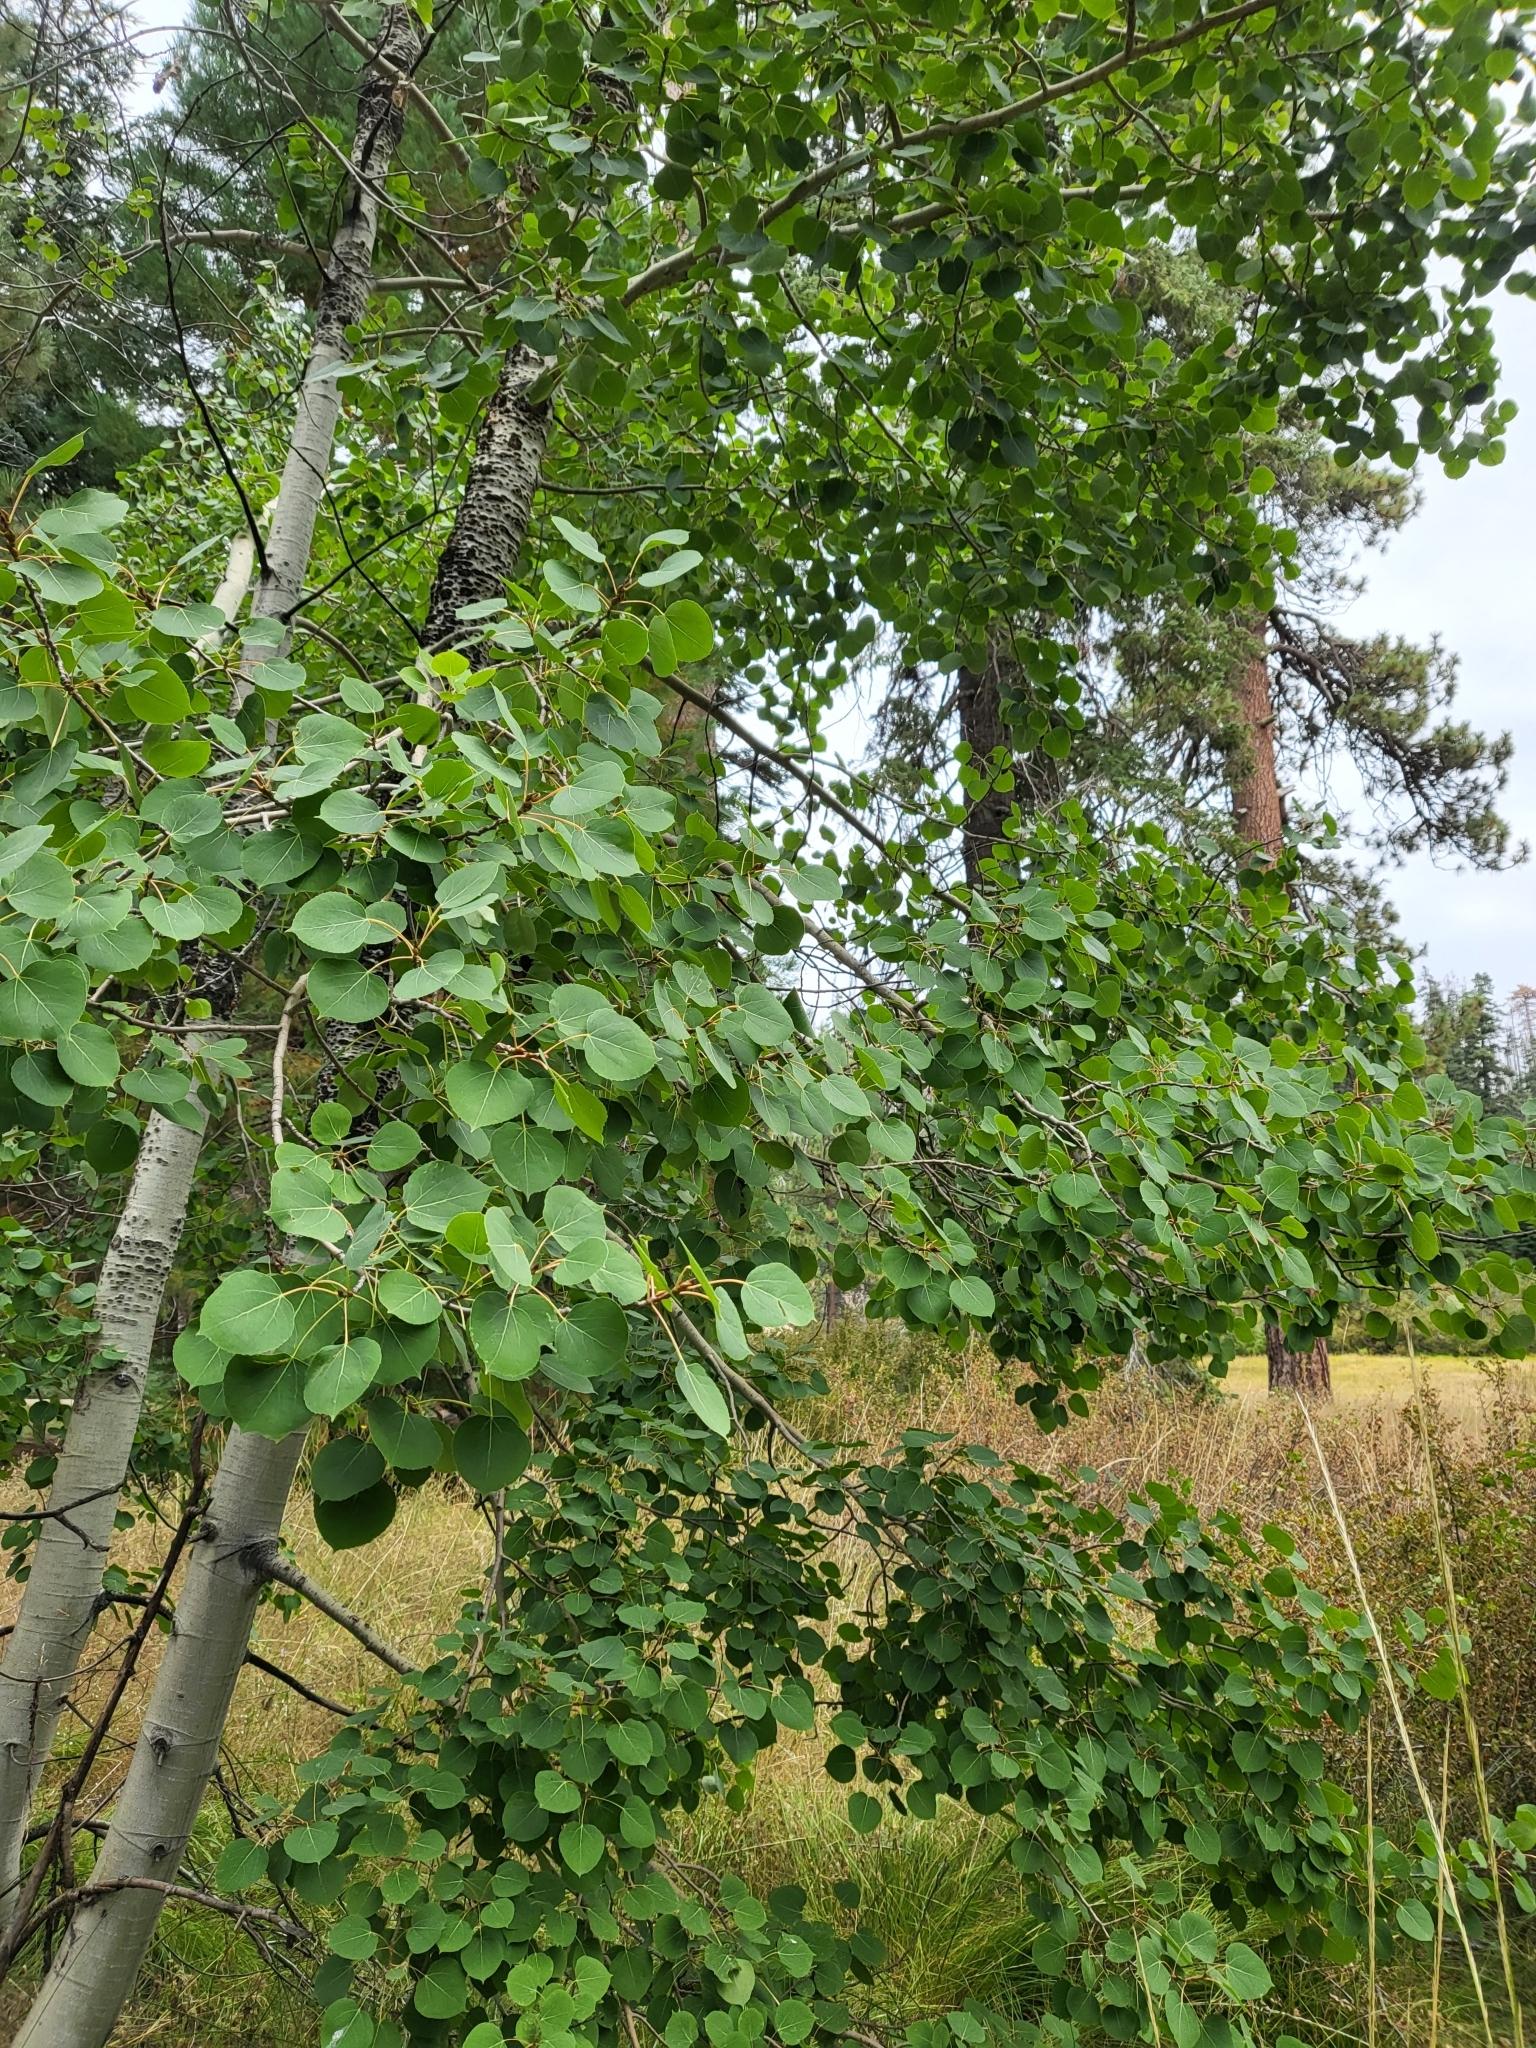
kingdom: Plantae
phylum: Tracheophyta
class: Magnoliopsida
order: Malpighiales
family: Salicaceae
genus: Populus
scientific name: Populus tremuloides
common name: Quaking aspen
